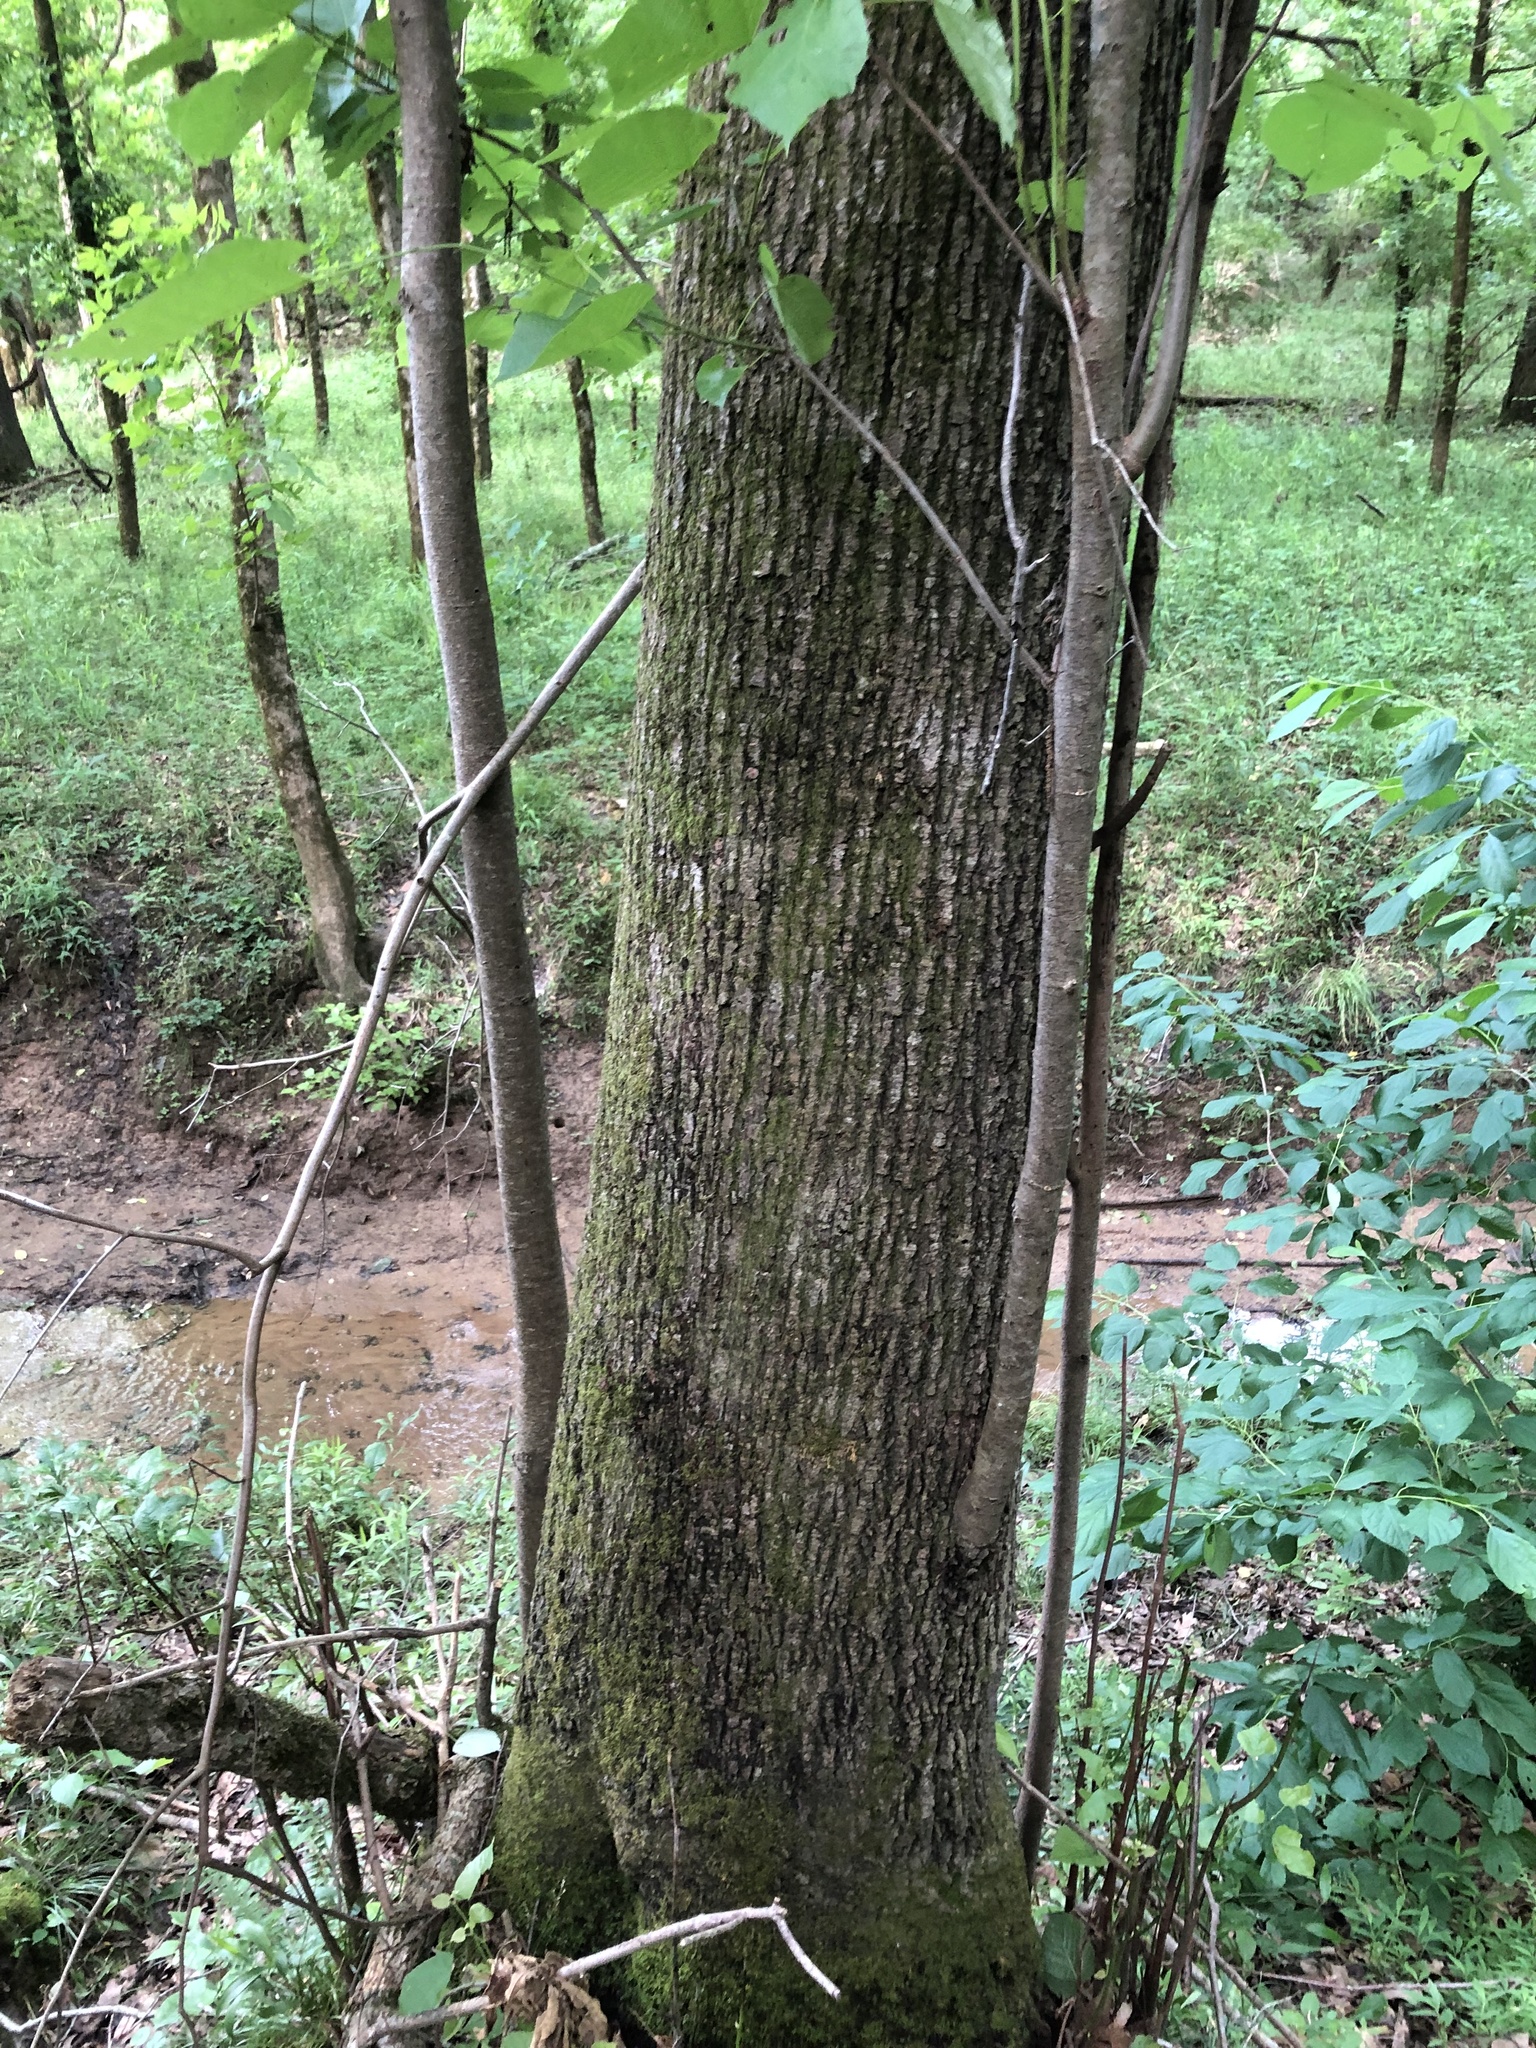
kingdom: Plantae
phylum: Tracheophyta
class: Magnoliopsida
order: Malvales
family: Malvaceae
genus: Tilia
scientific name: Tilia americana
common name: Basswood
